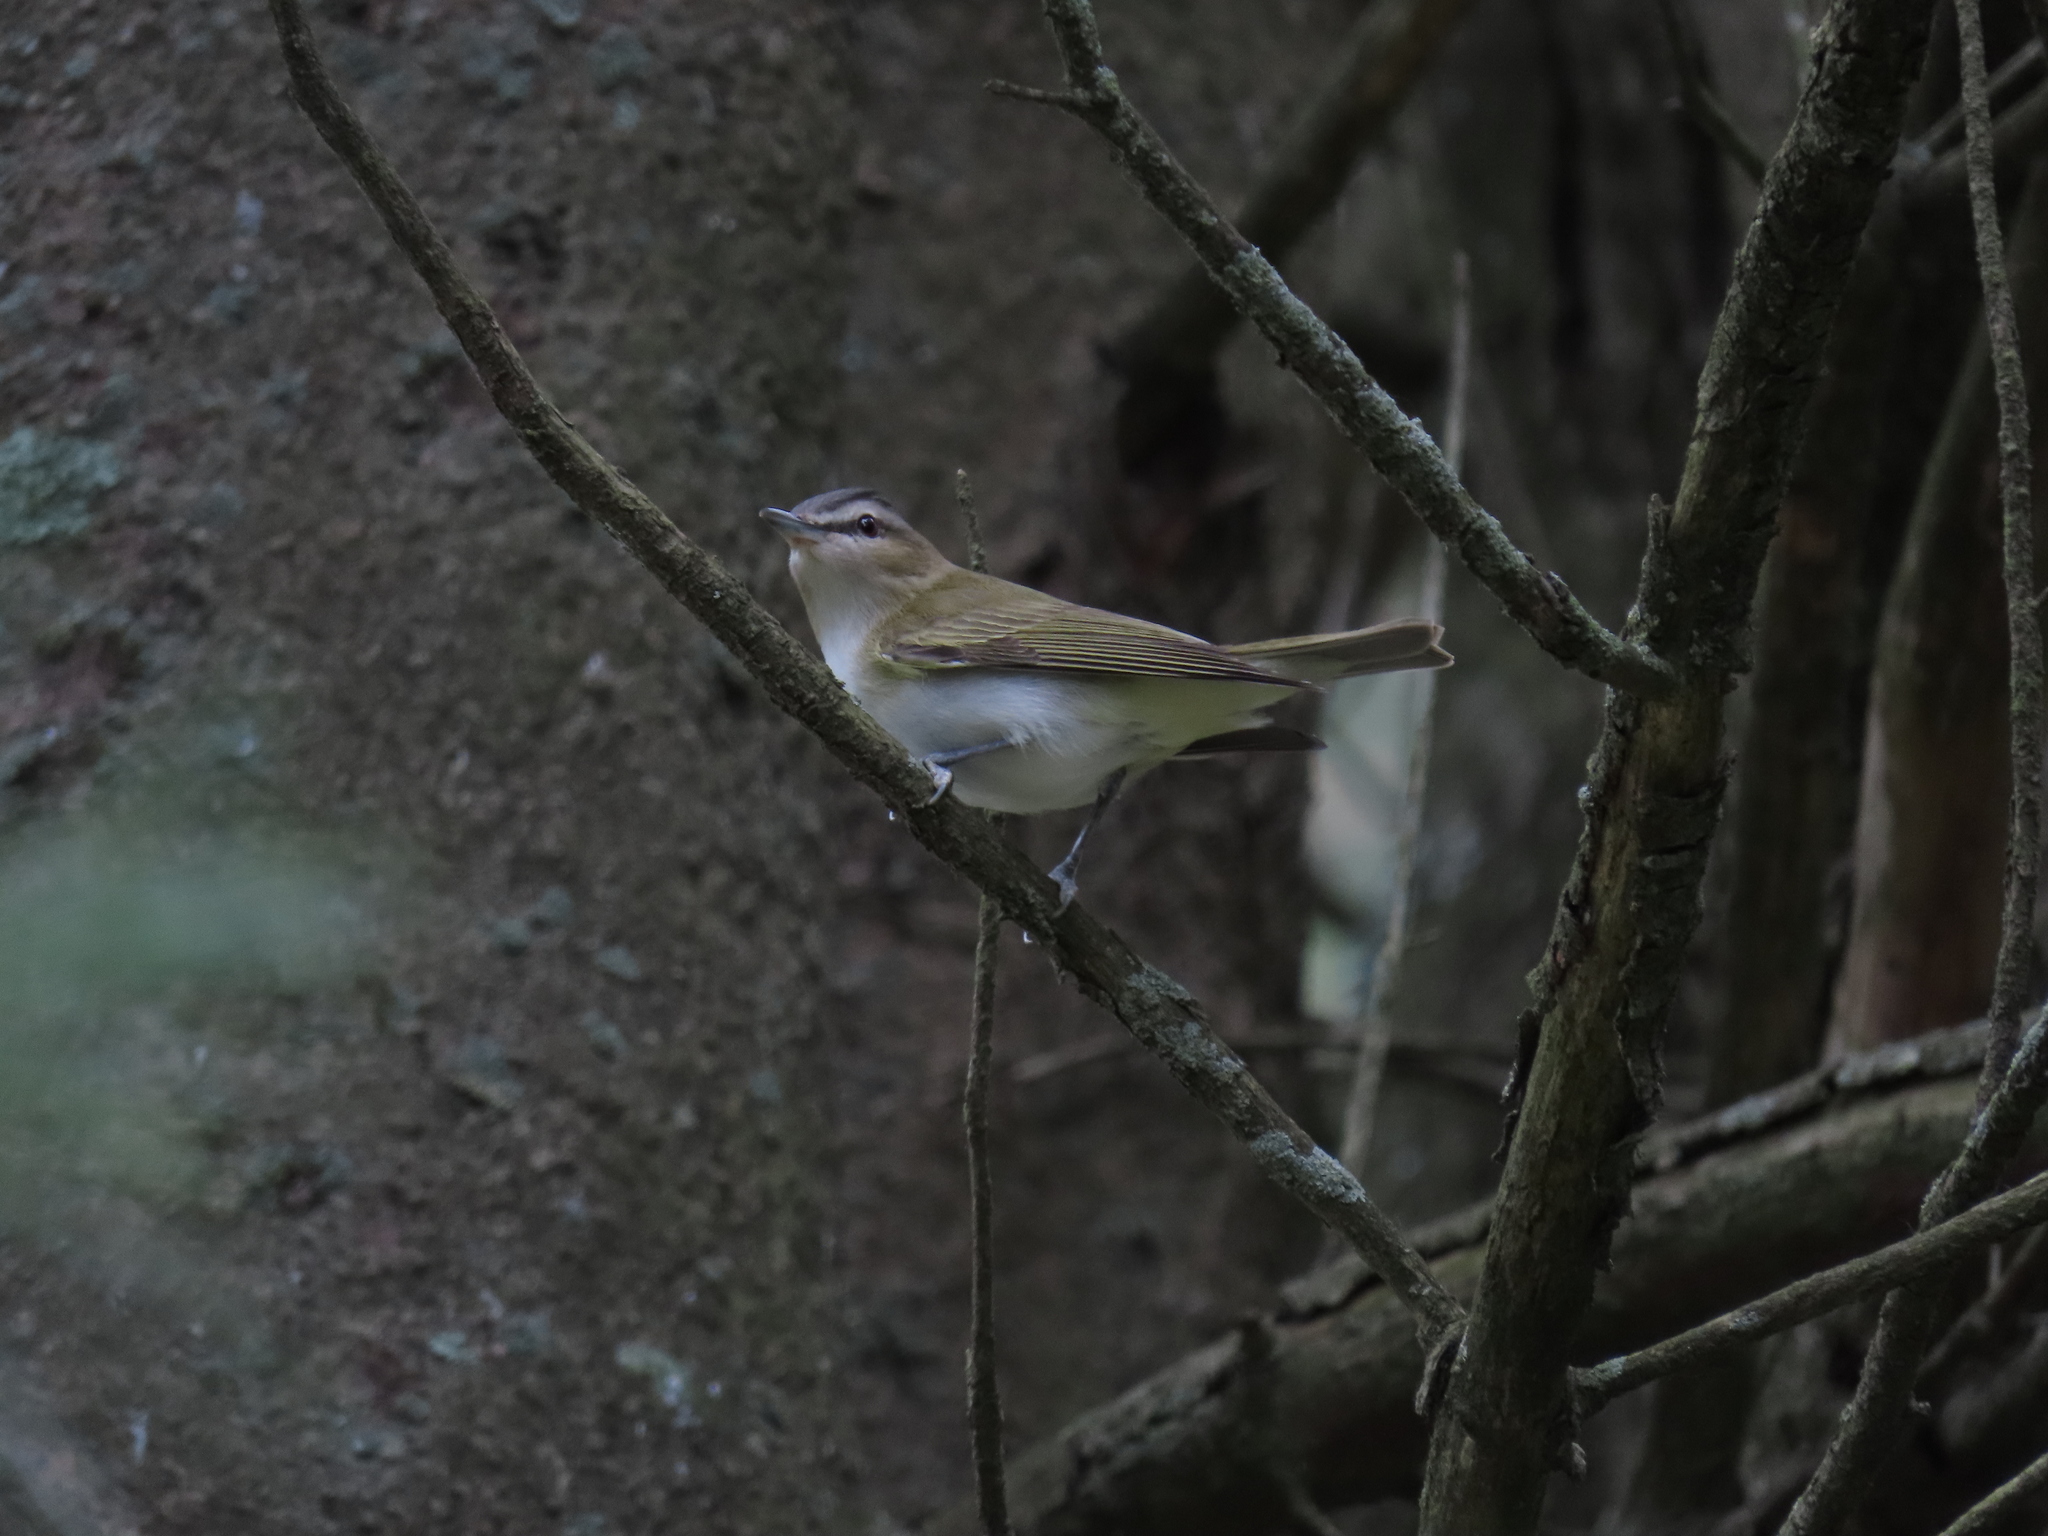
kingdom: Animalia
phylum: Chordata
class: Aves
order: Passeriformes
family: Vireonidae
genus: Vireo
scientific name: Vireo olivaceus
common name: Red-eyed vireo
